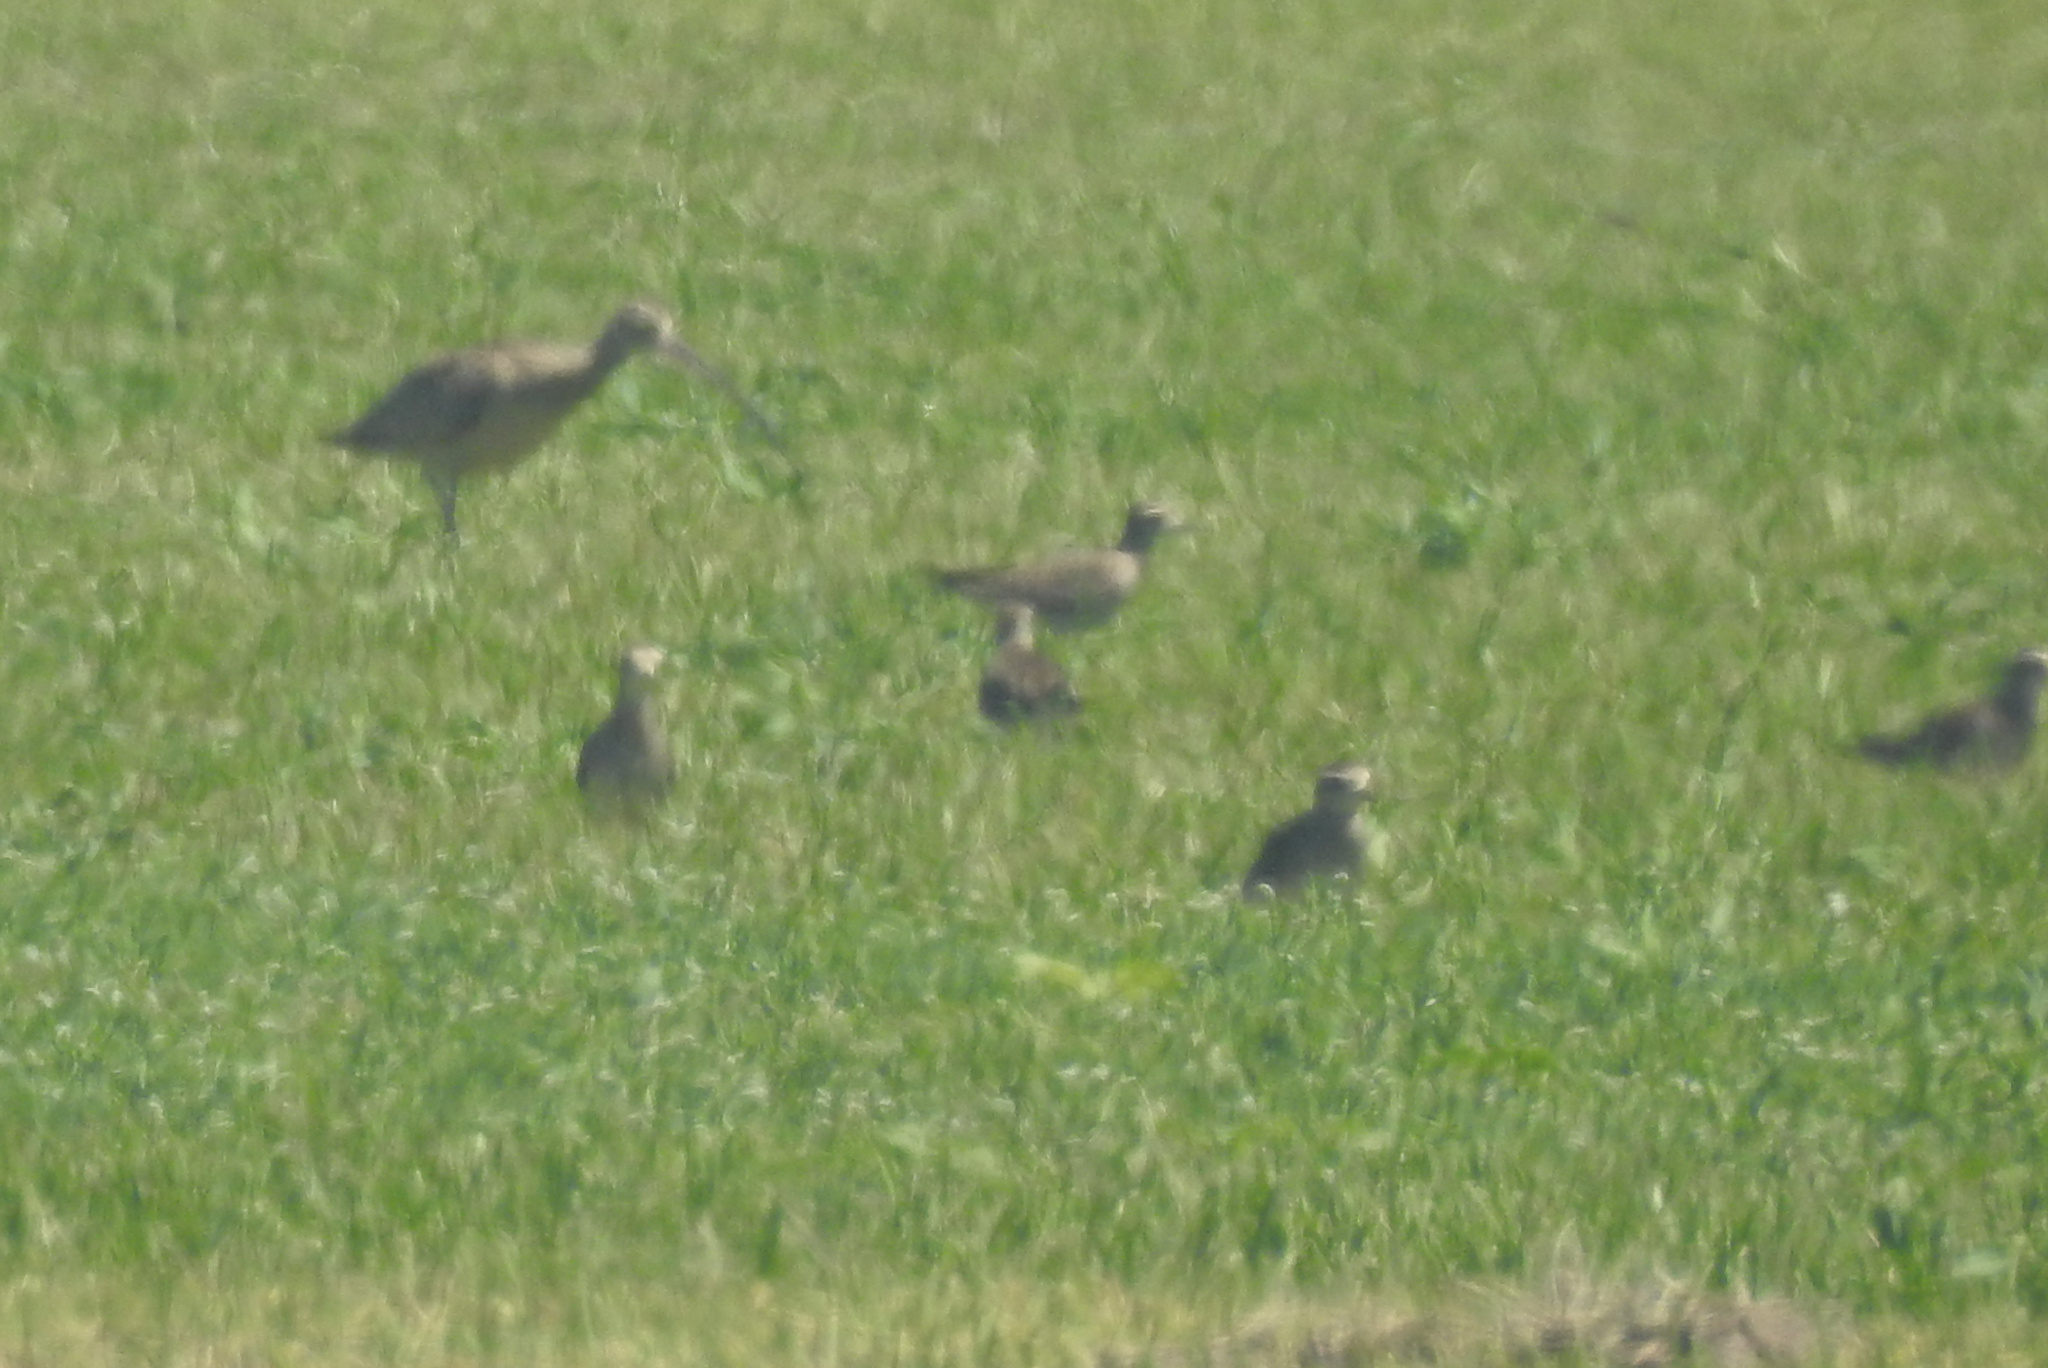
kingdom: Animalia
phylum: Chordata
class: Aves
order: Charadriiformes
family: Charadriidae
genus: Pluvialis
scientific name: Pluvialis dominica
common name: American golden plover
